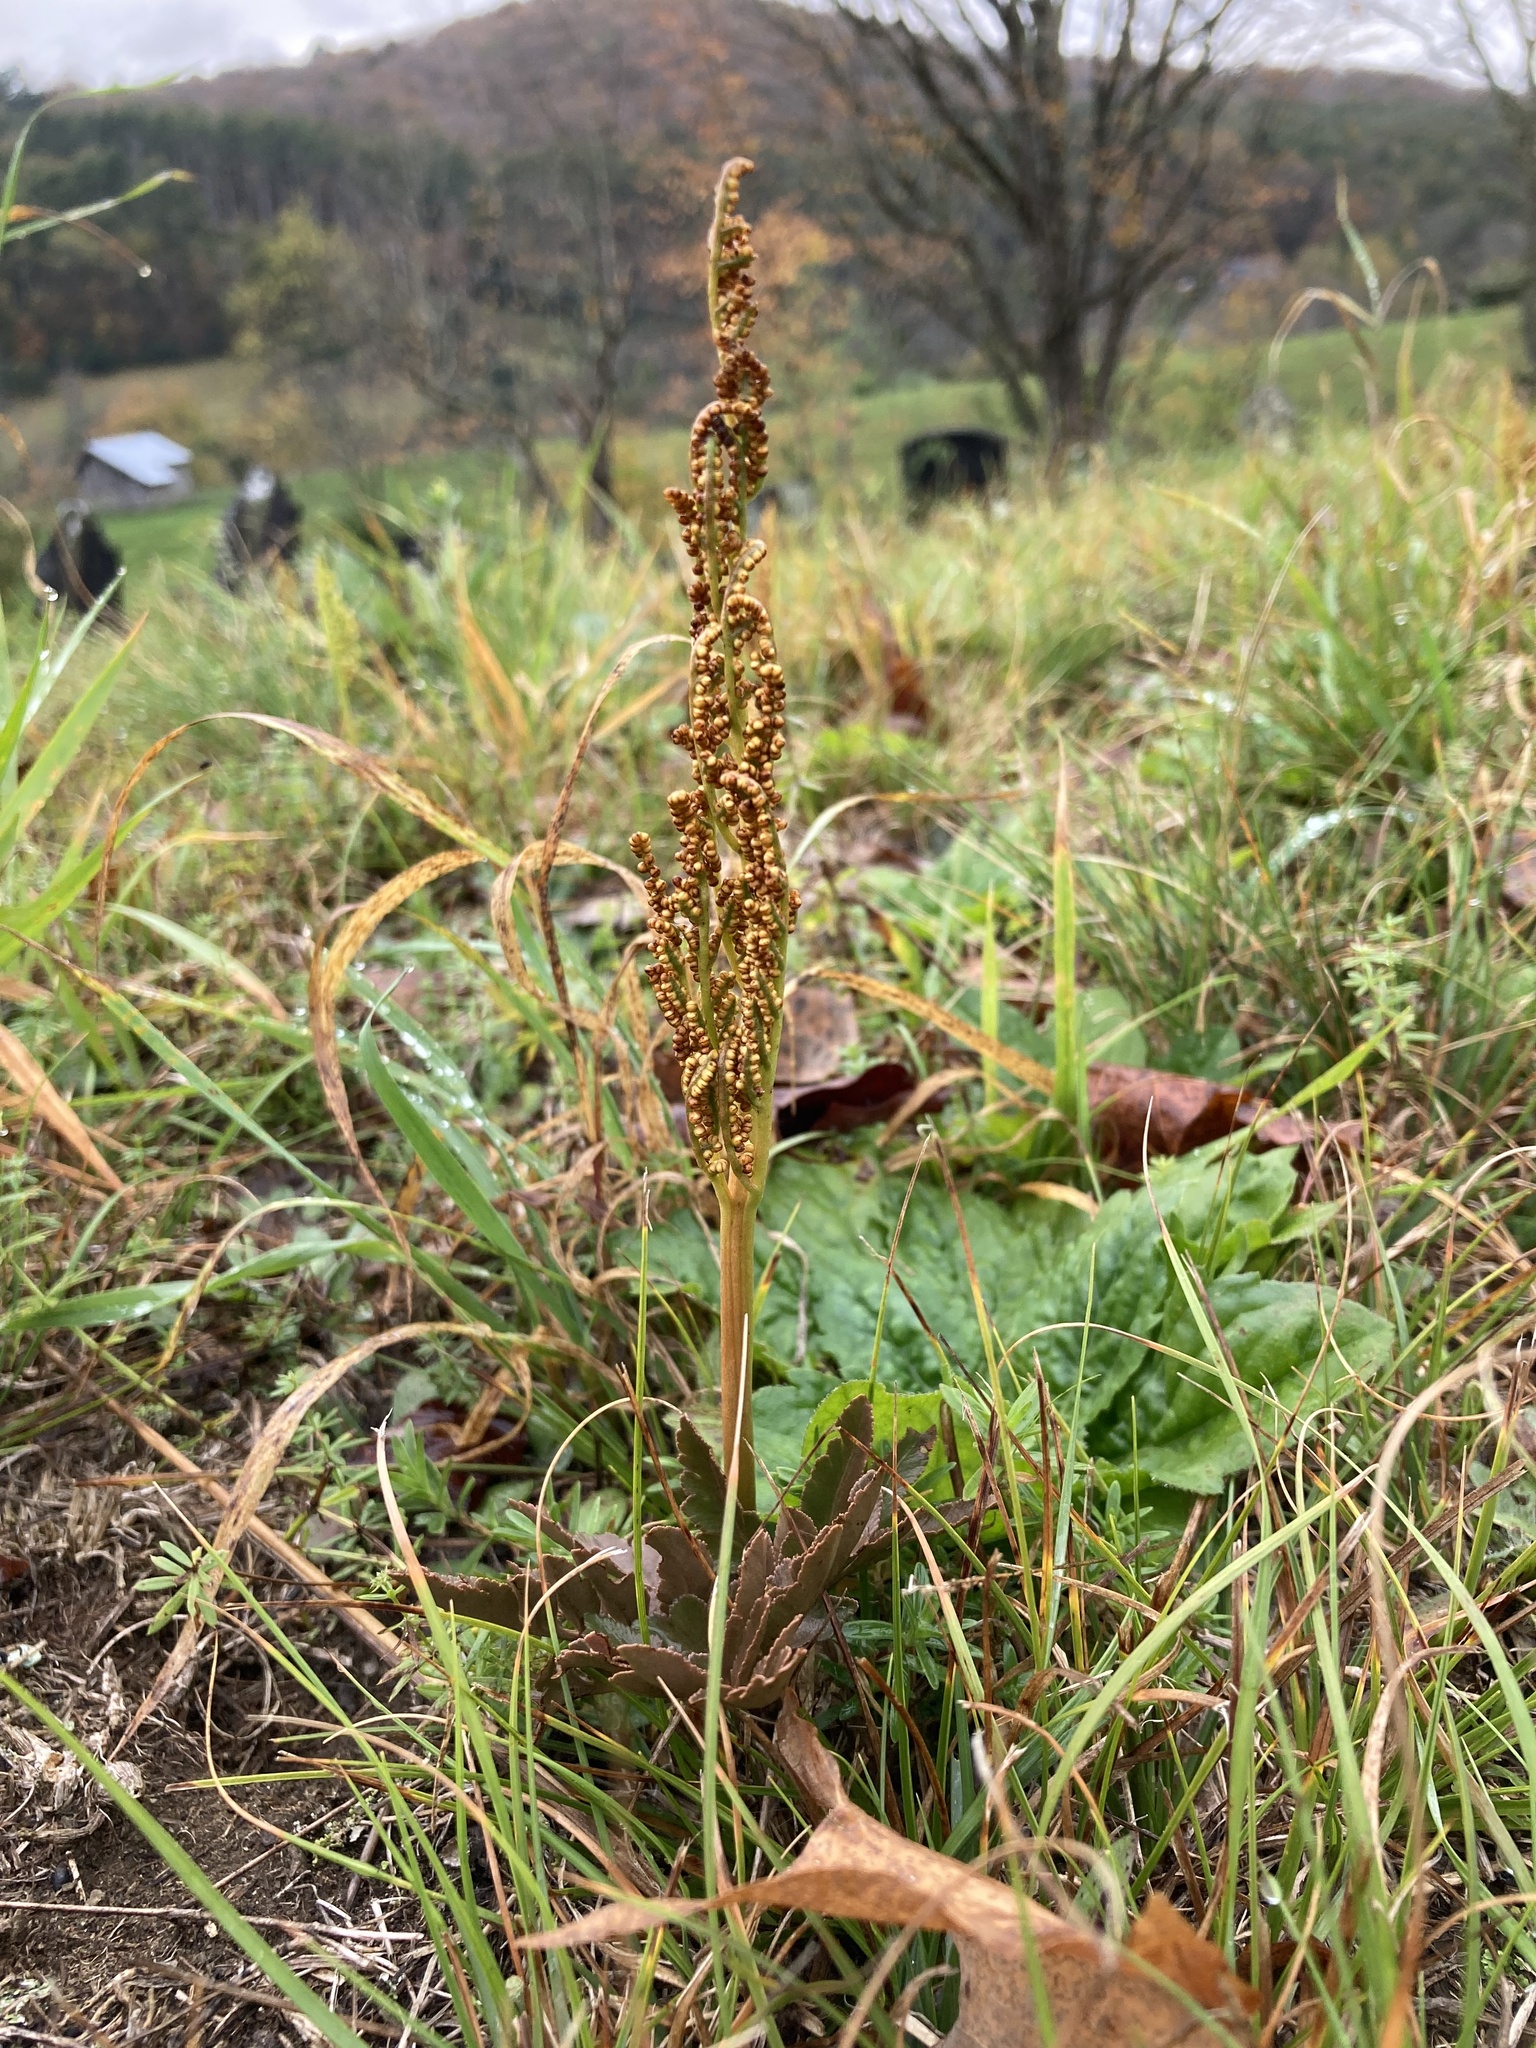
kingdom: Plantae
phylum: Tracheophyta
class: Polypodiopsida
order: Ophioglossales
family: Ophioglossaceae
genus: Sceptridium
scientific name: Sceptridium multifidum
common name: Leathery grape fern
